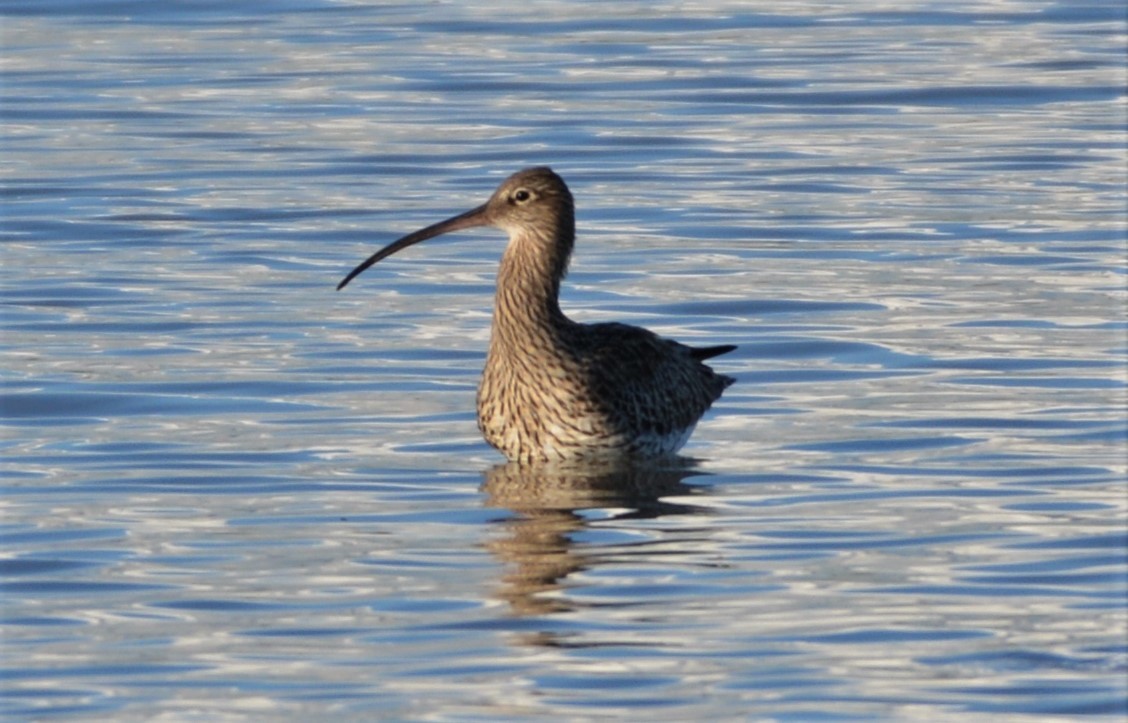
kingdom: Animalia
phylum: Chordata
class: Aves
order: Charadriiformes
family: Scolopacidae
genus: Numenius
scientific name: Numenius arquata
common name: Eurasian curlew
